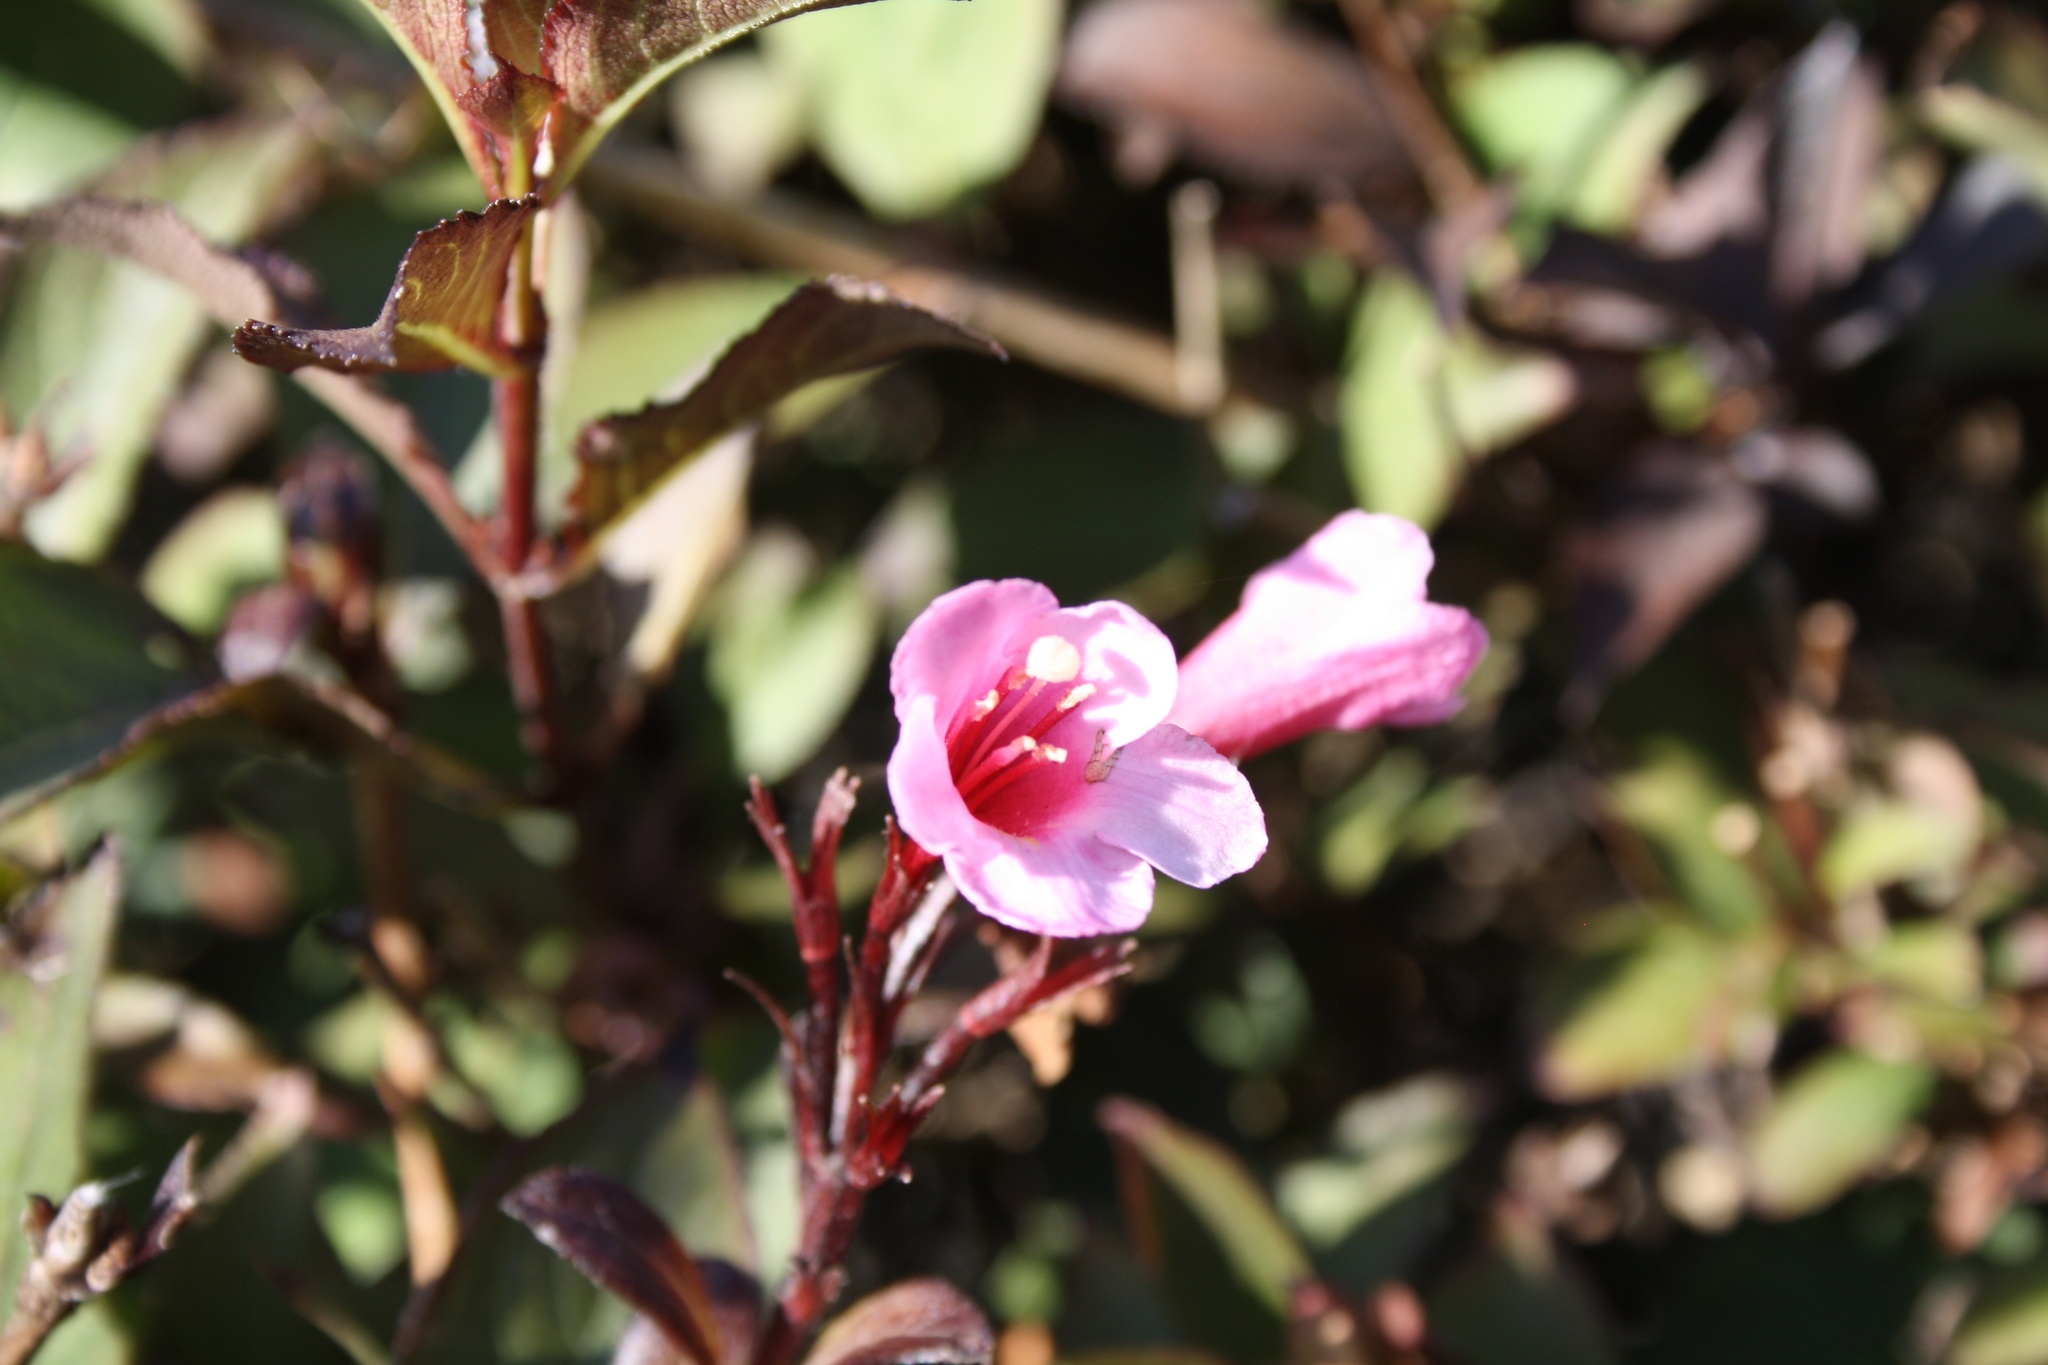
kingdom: Plantae
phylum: Tracheophyta
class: Magnoliopsida
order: Dipsacales
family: Caprifoliaceae
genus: Weigela
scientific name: Weigela florida
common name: Weigelia
